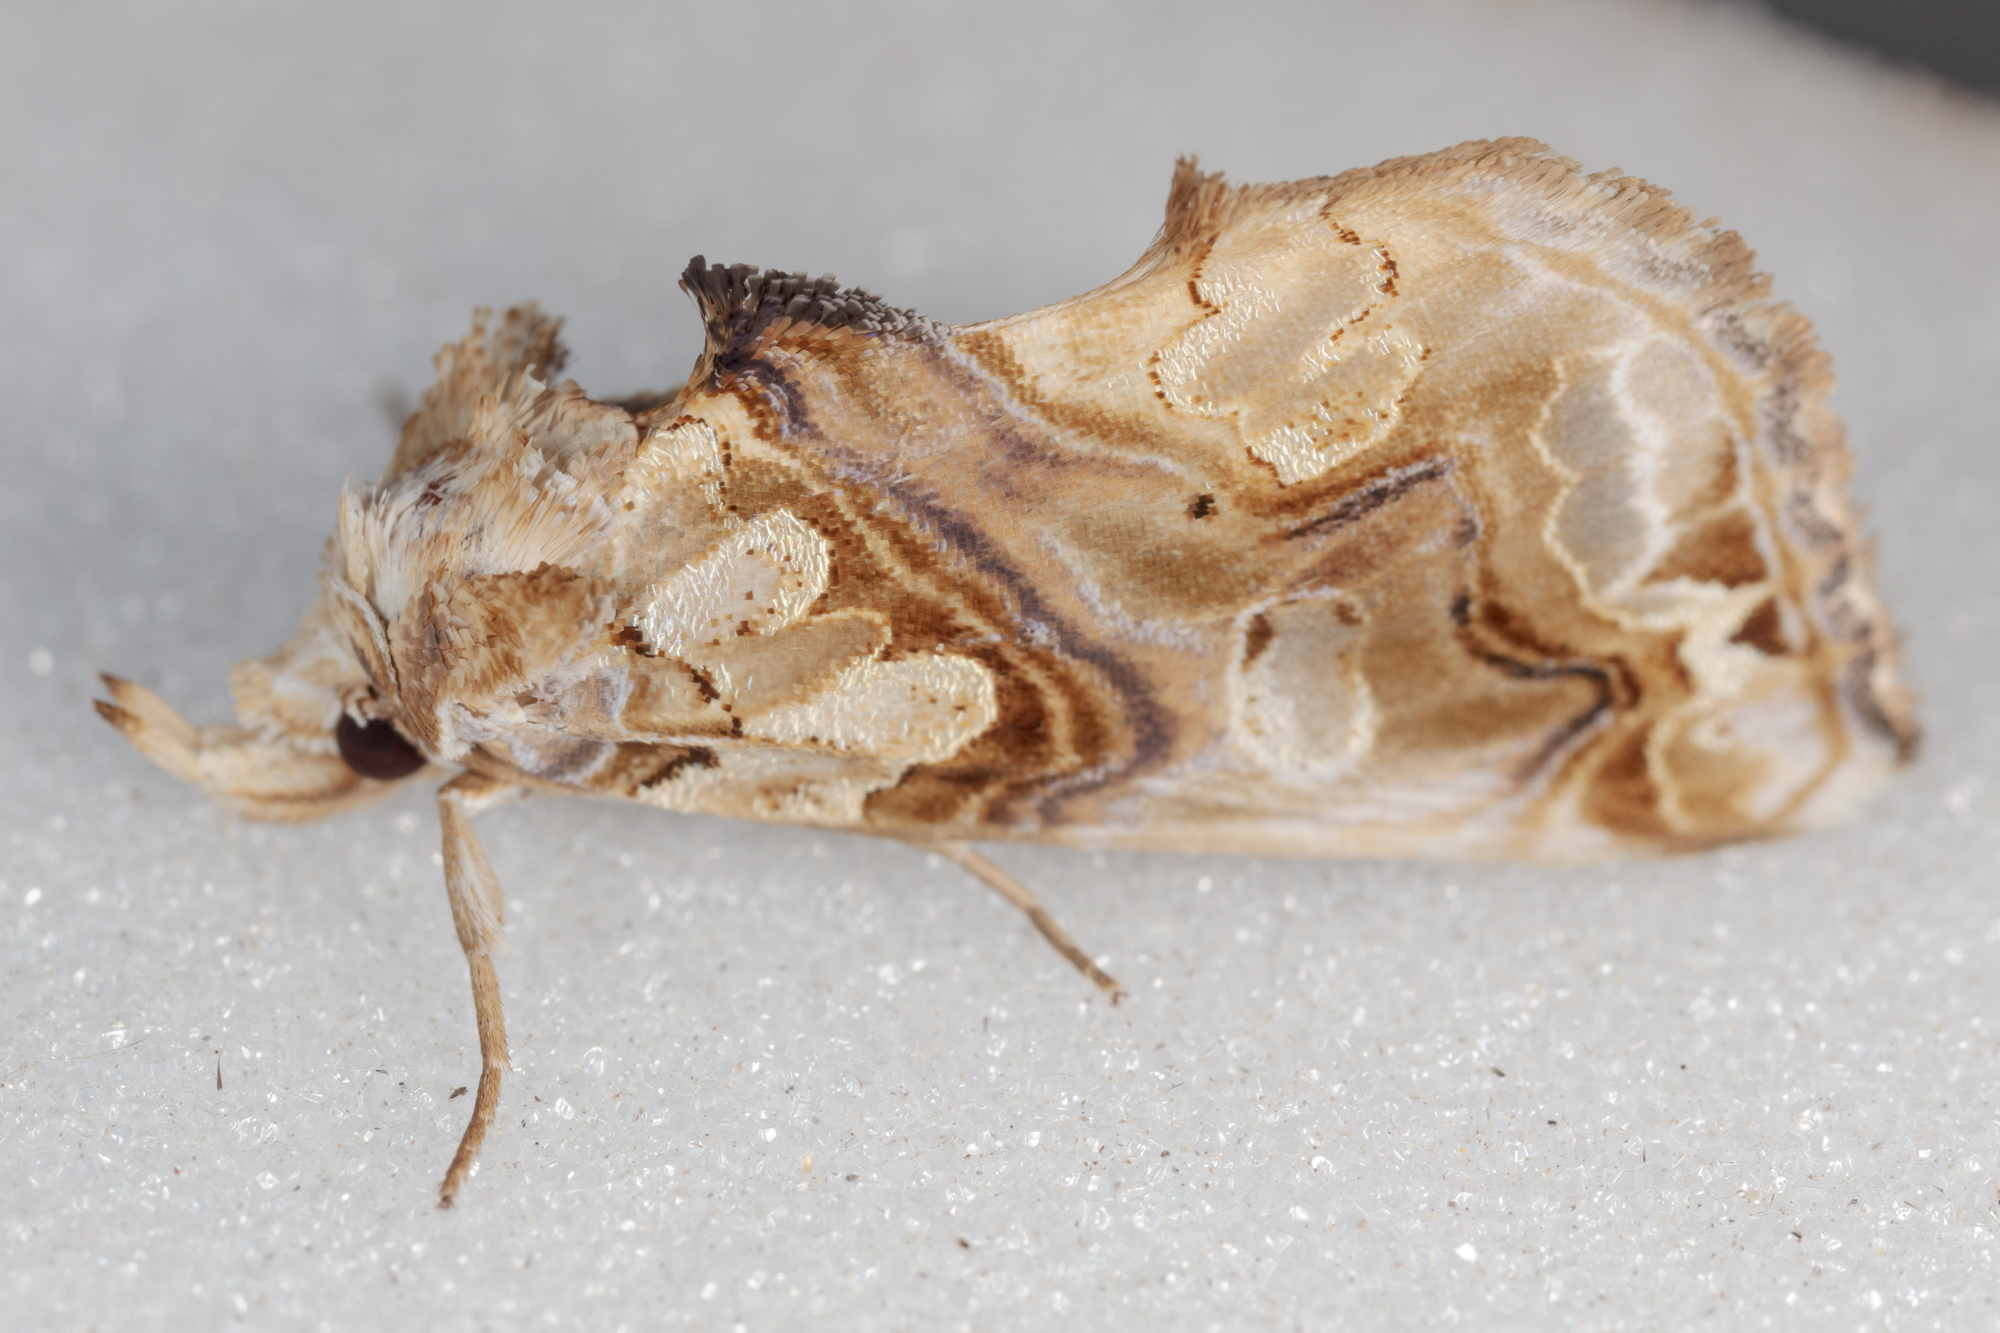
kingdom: Animalia
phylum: Arthropoda
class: Insecta
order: Lepidoptera
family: Erebidae
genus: Plusiodonta
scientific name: Plusiodonta compressipalpis
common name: Moonseed moth
